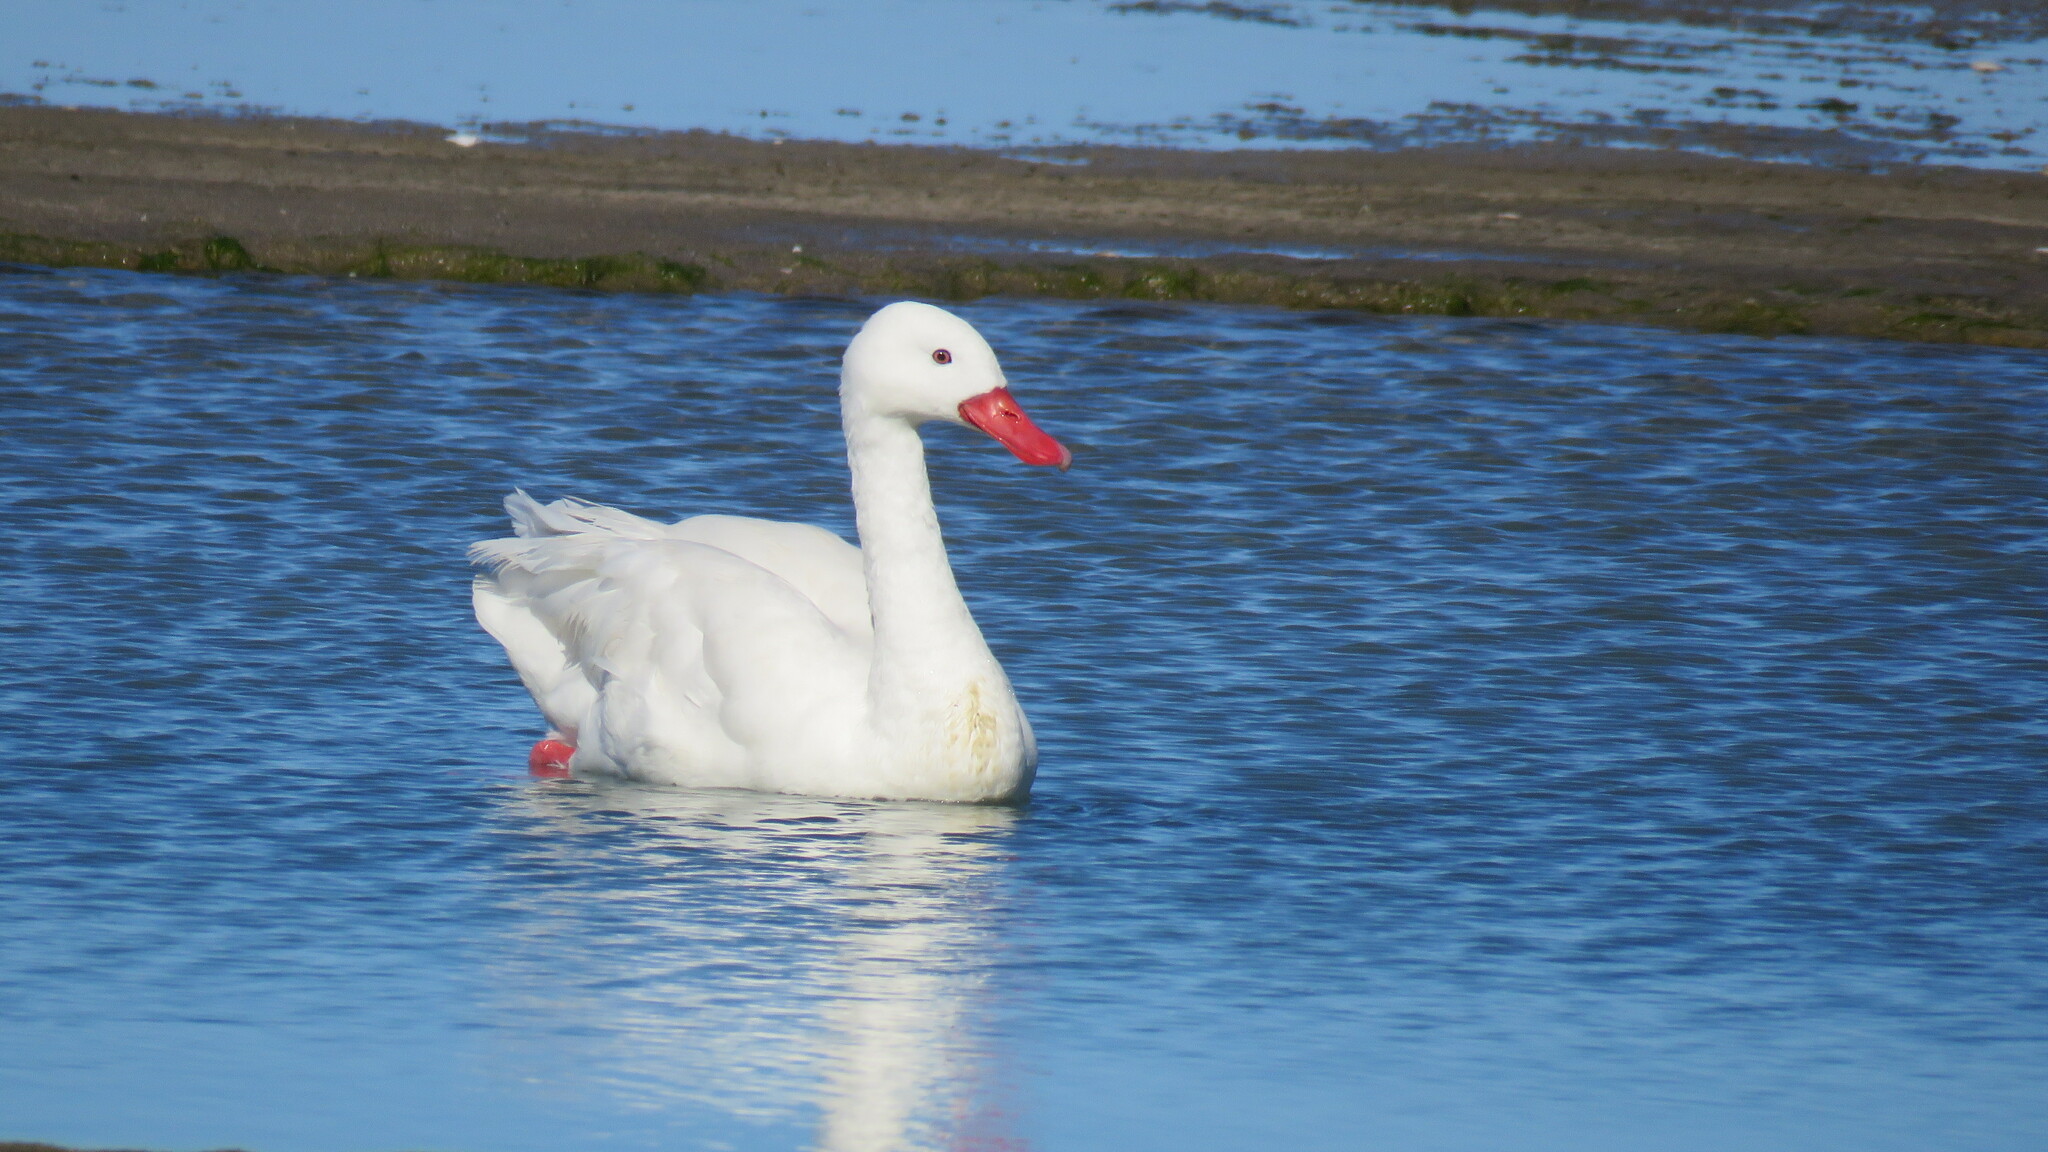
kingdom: Animalia
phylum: Chordata
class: Aves
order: Anseriformes
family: Anatidae
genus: Coscoroba
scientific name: Coscoroba coscoroba
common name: Coscoroba swan
